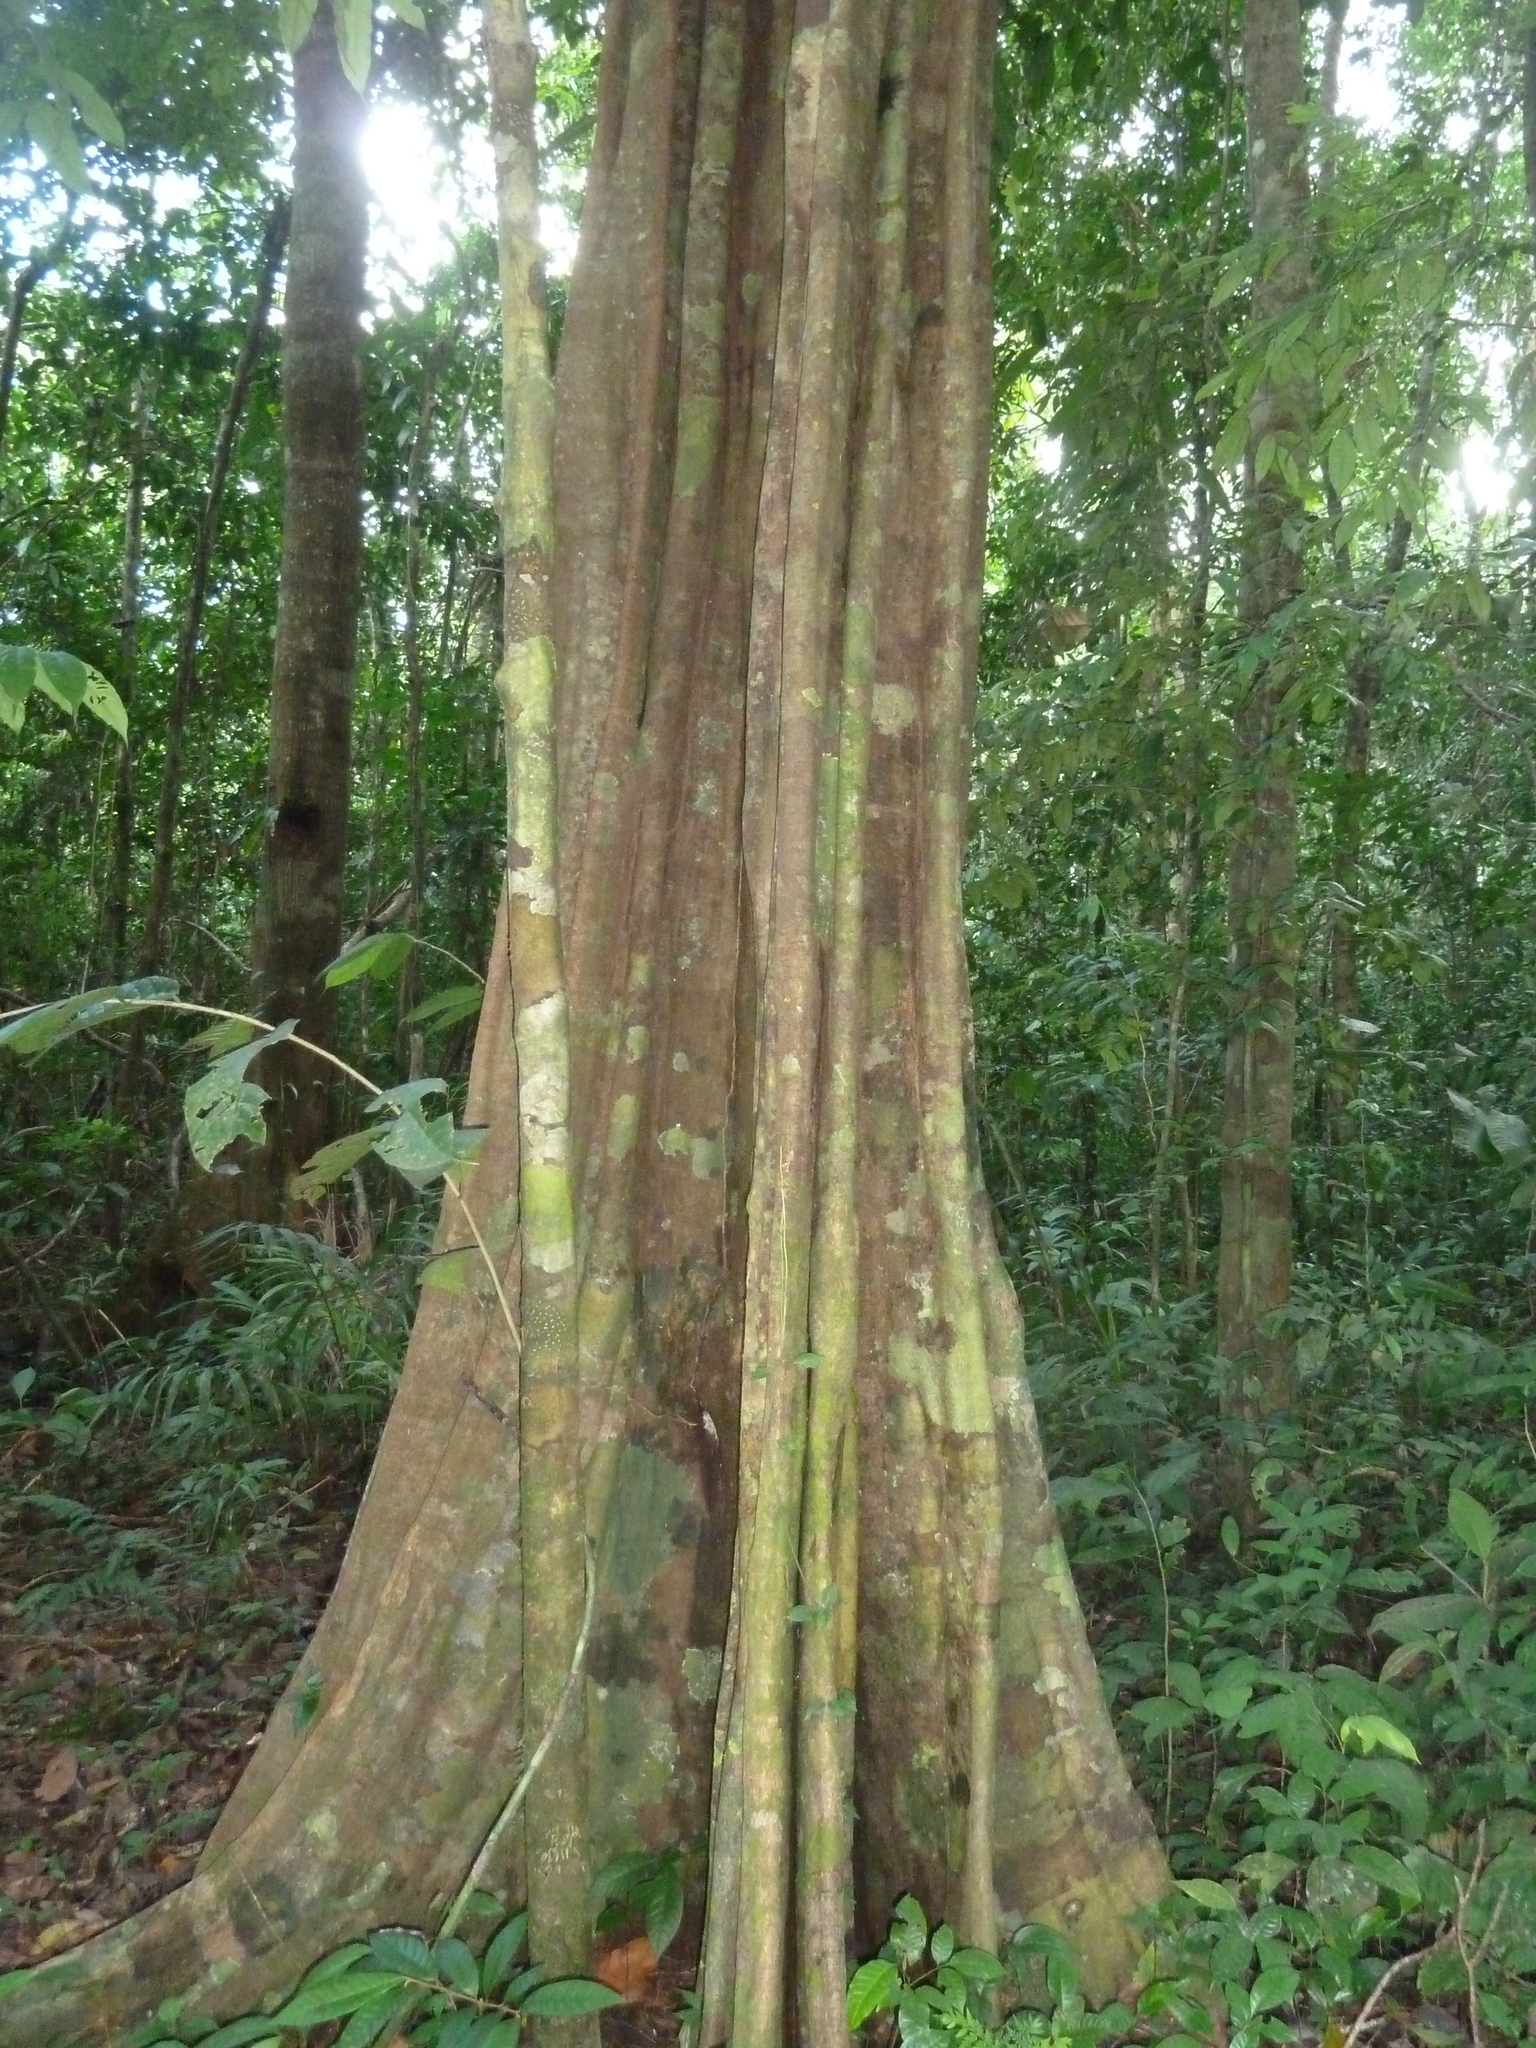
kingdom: Plantae
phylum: Tracheophyta
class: Magnoliopsida
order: Fabales
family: Fabaceae
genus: Lecointea
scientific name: Lecointea amazonica
